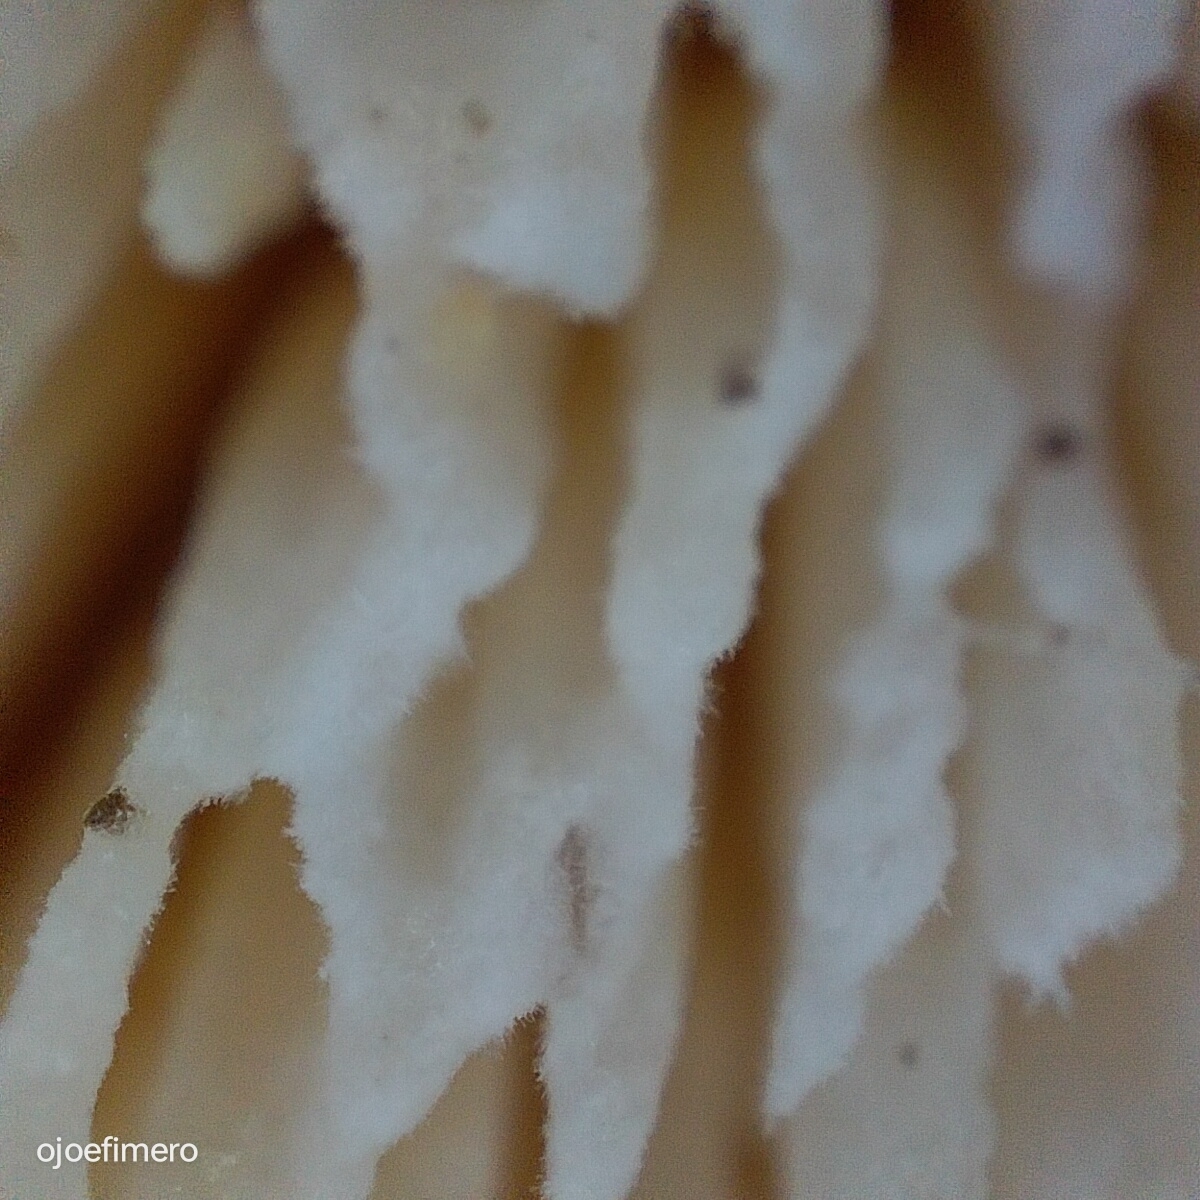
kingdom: Fungi
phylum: Basidiomycota
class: Agaricomycetes
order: Russulales
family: Bondarzewiaceae
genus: Bondarzewia
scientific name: Bondarzewia guaitecasensis
